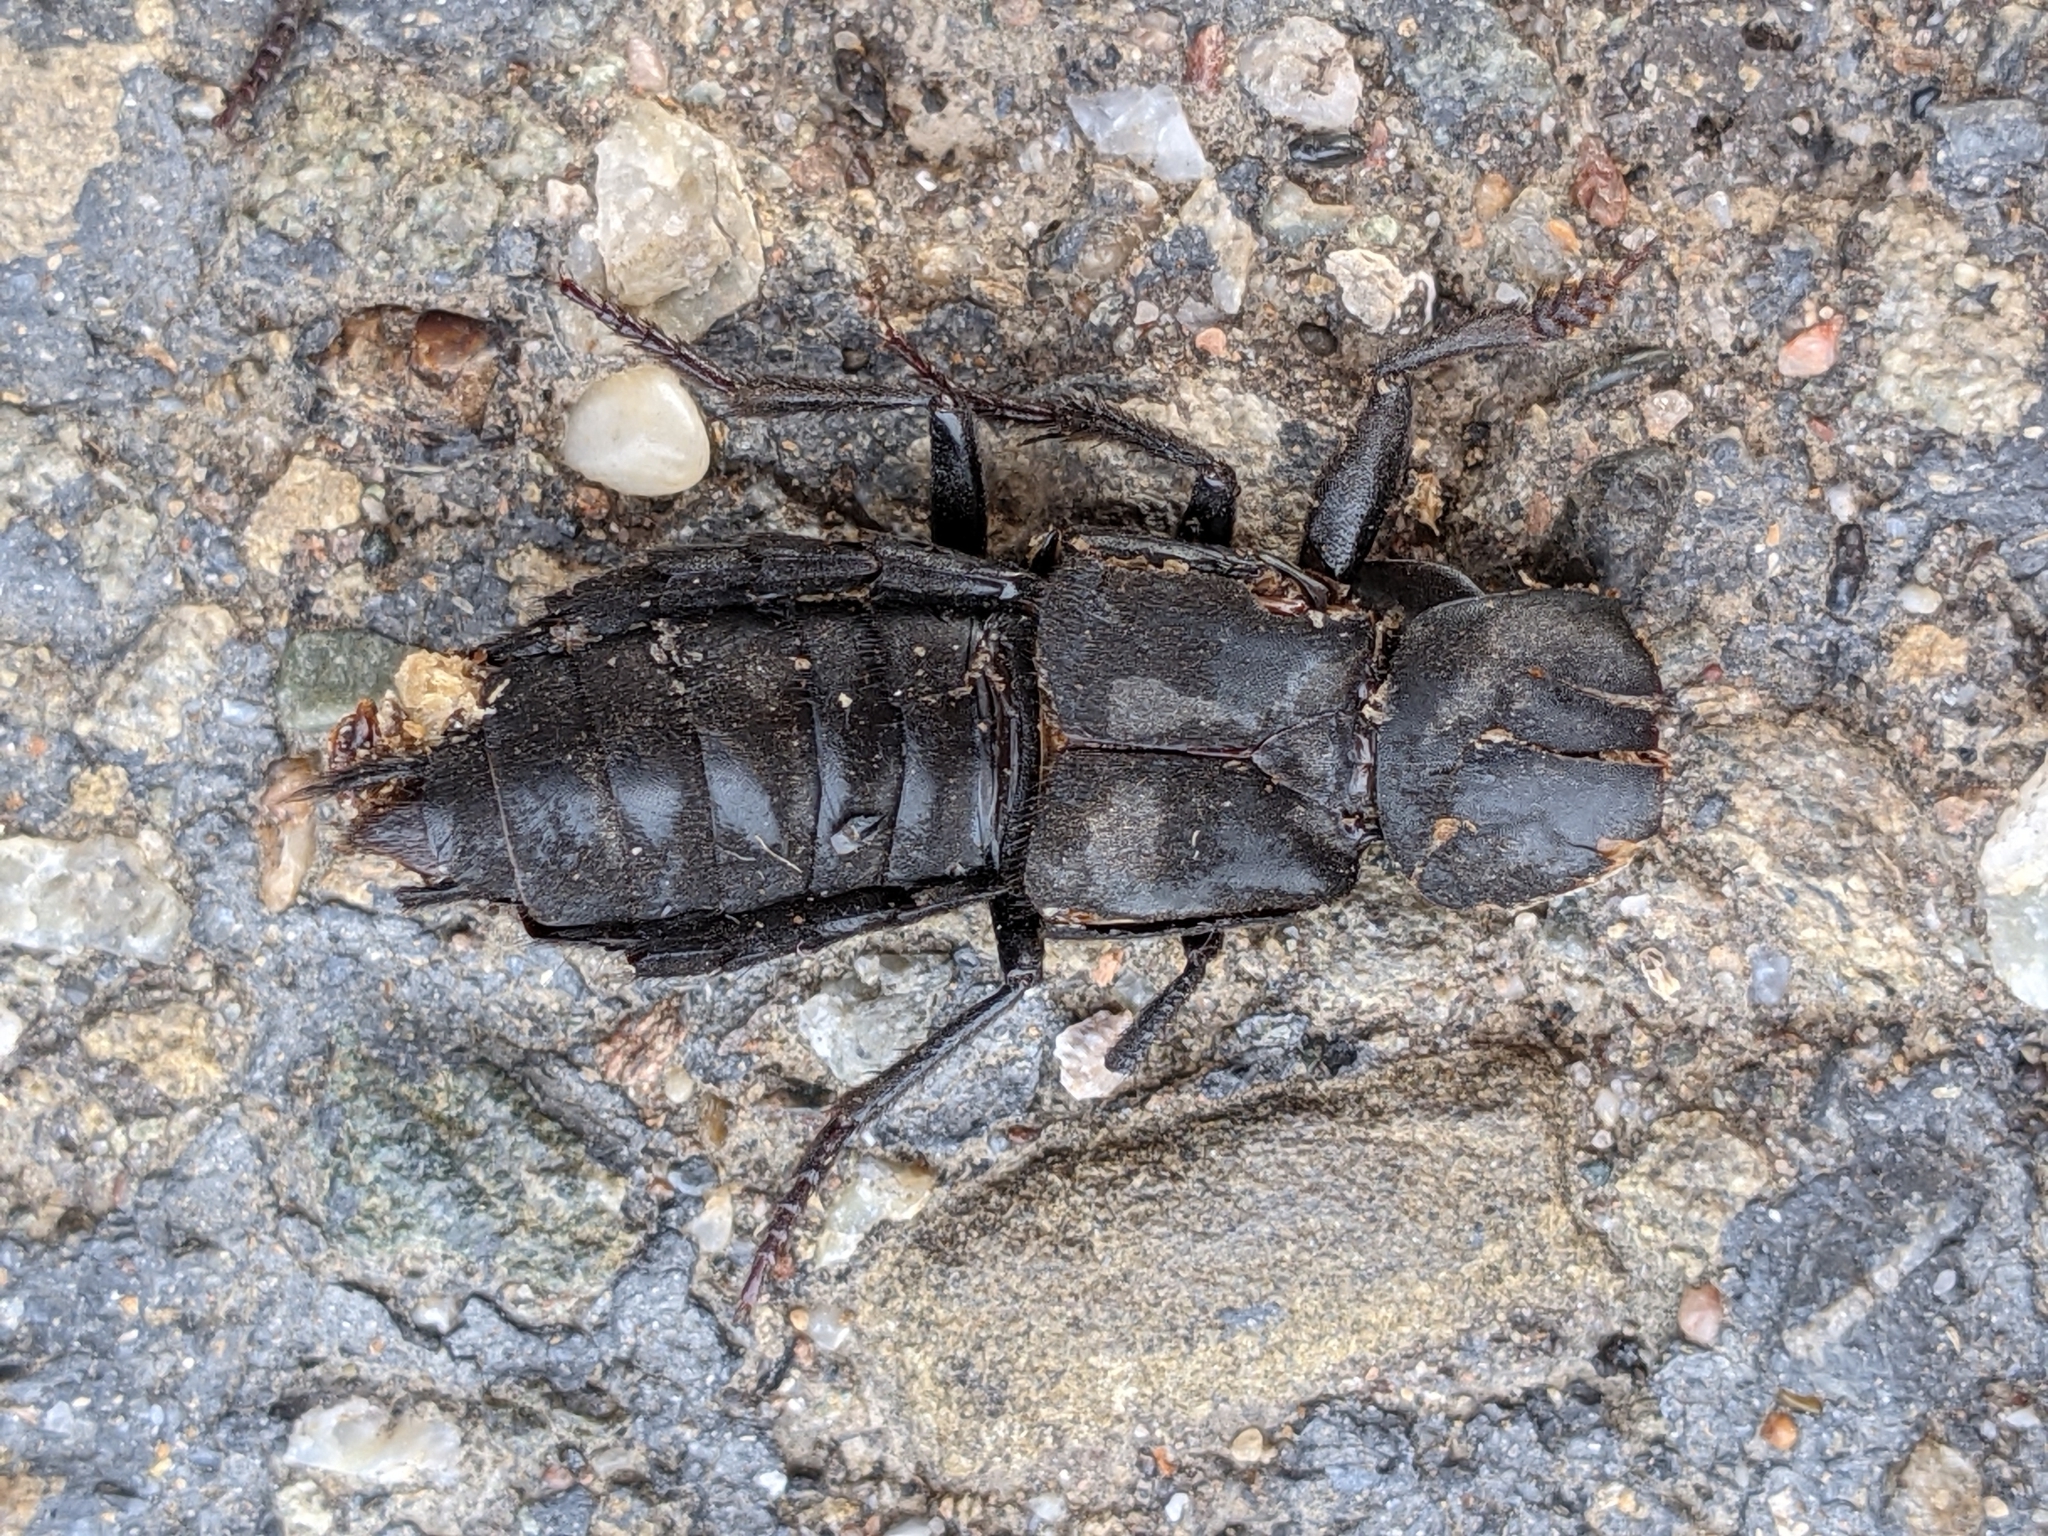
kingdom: Animalia
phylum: Arthropoda
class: Insecta
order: Coleoptera
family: Staphylinidae
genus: Ocypus
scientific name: Ocypus olens
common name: Devil's coach-horse
